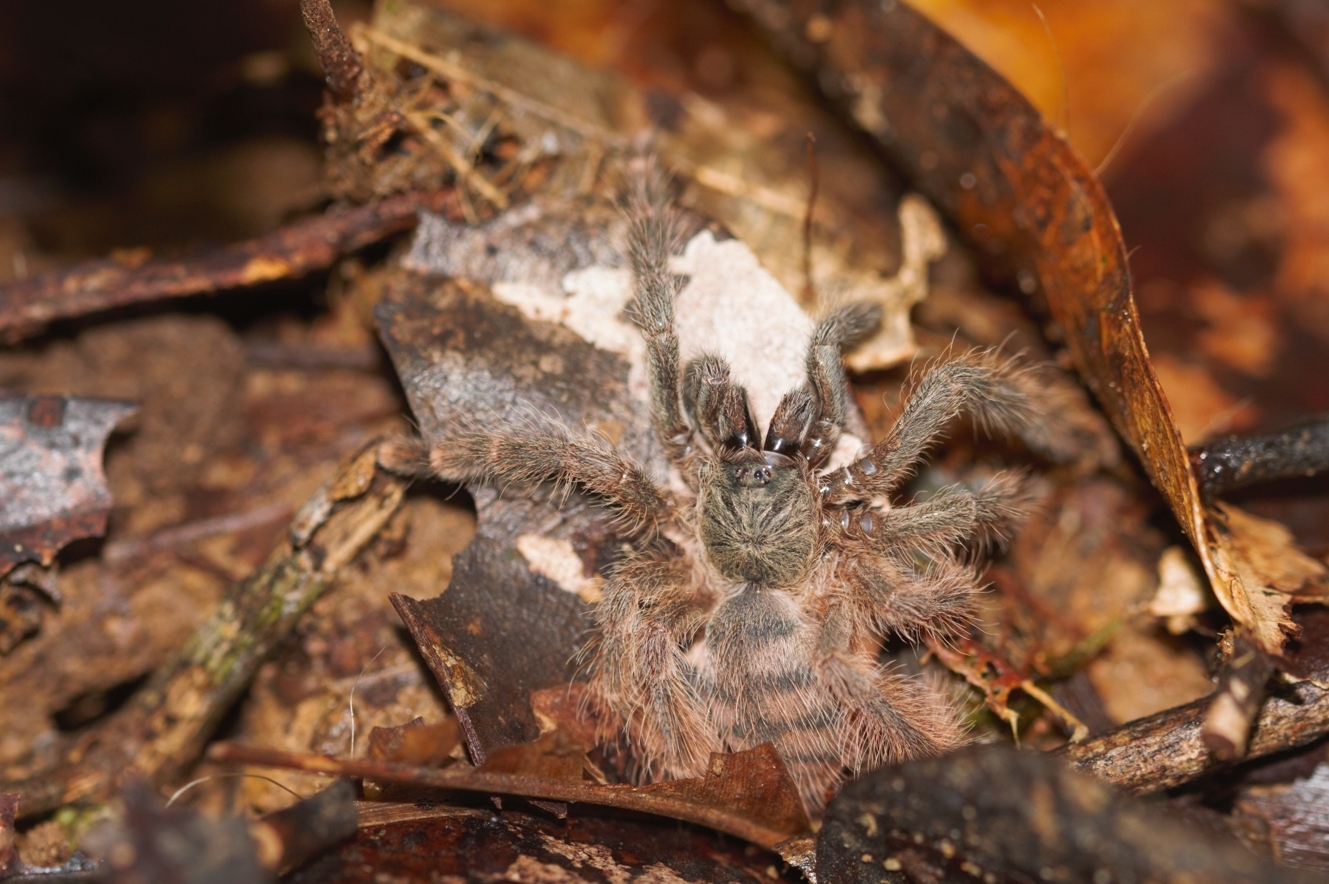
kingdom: Animalia
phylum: Arthropoda
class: Arachnida
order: Araneae
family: Theraphosidae
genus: Amazonius
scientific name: Amazonius germani
